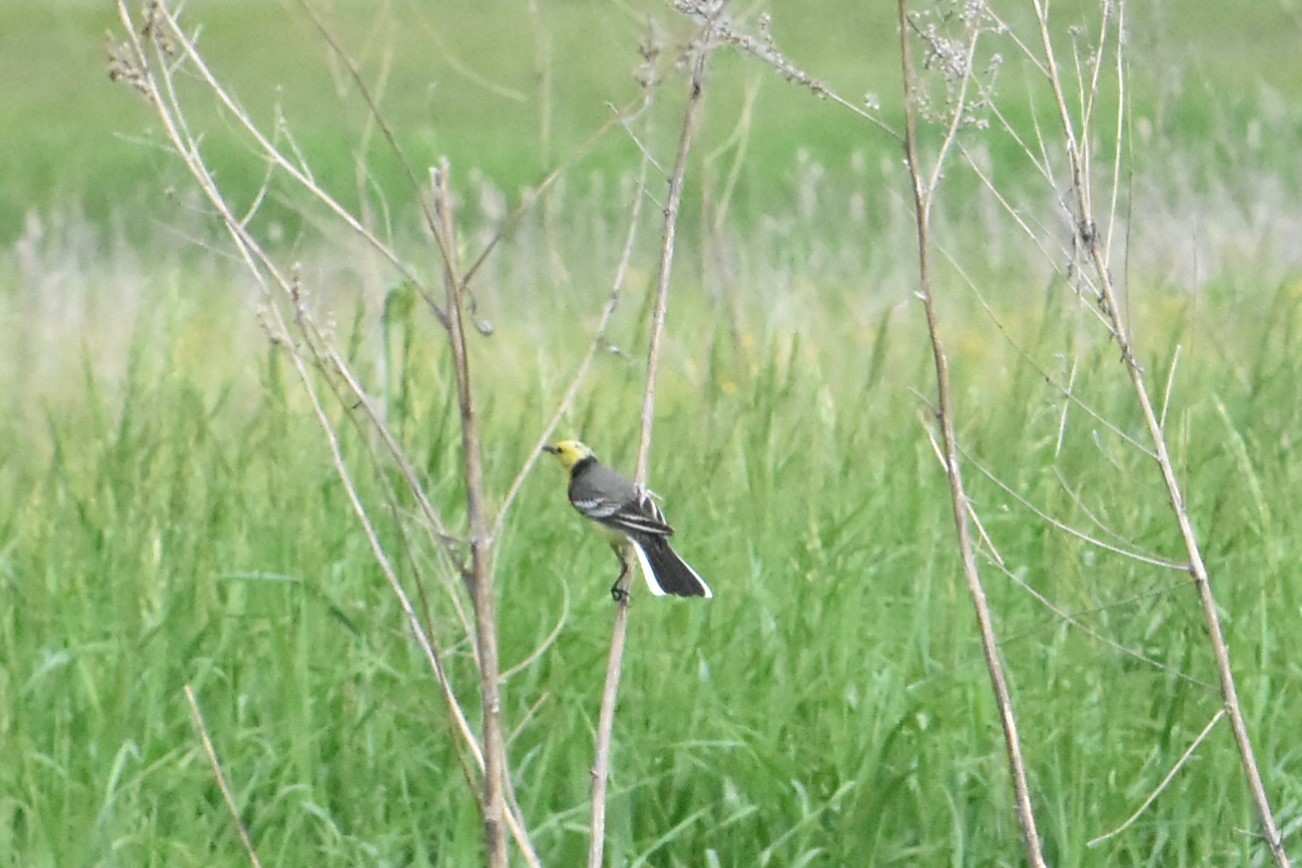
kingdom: Animalia
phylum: Chordata
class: Aves
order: Passeriformes
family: Motacillidae
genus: Motacilla
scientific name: Motacilla citreola
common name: Citrine wagtail
